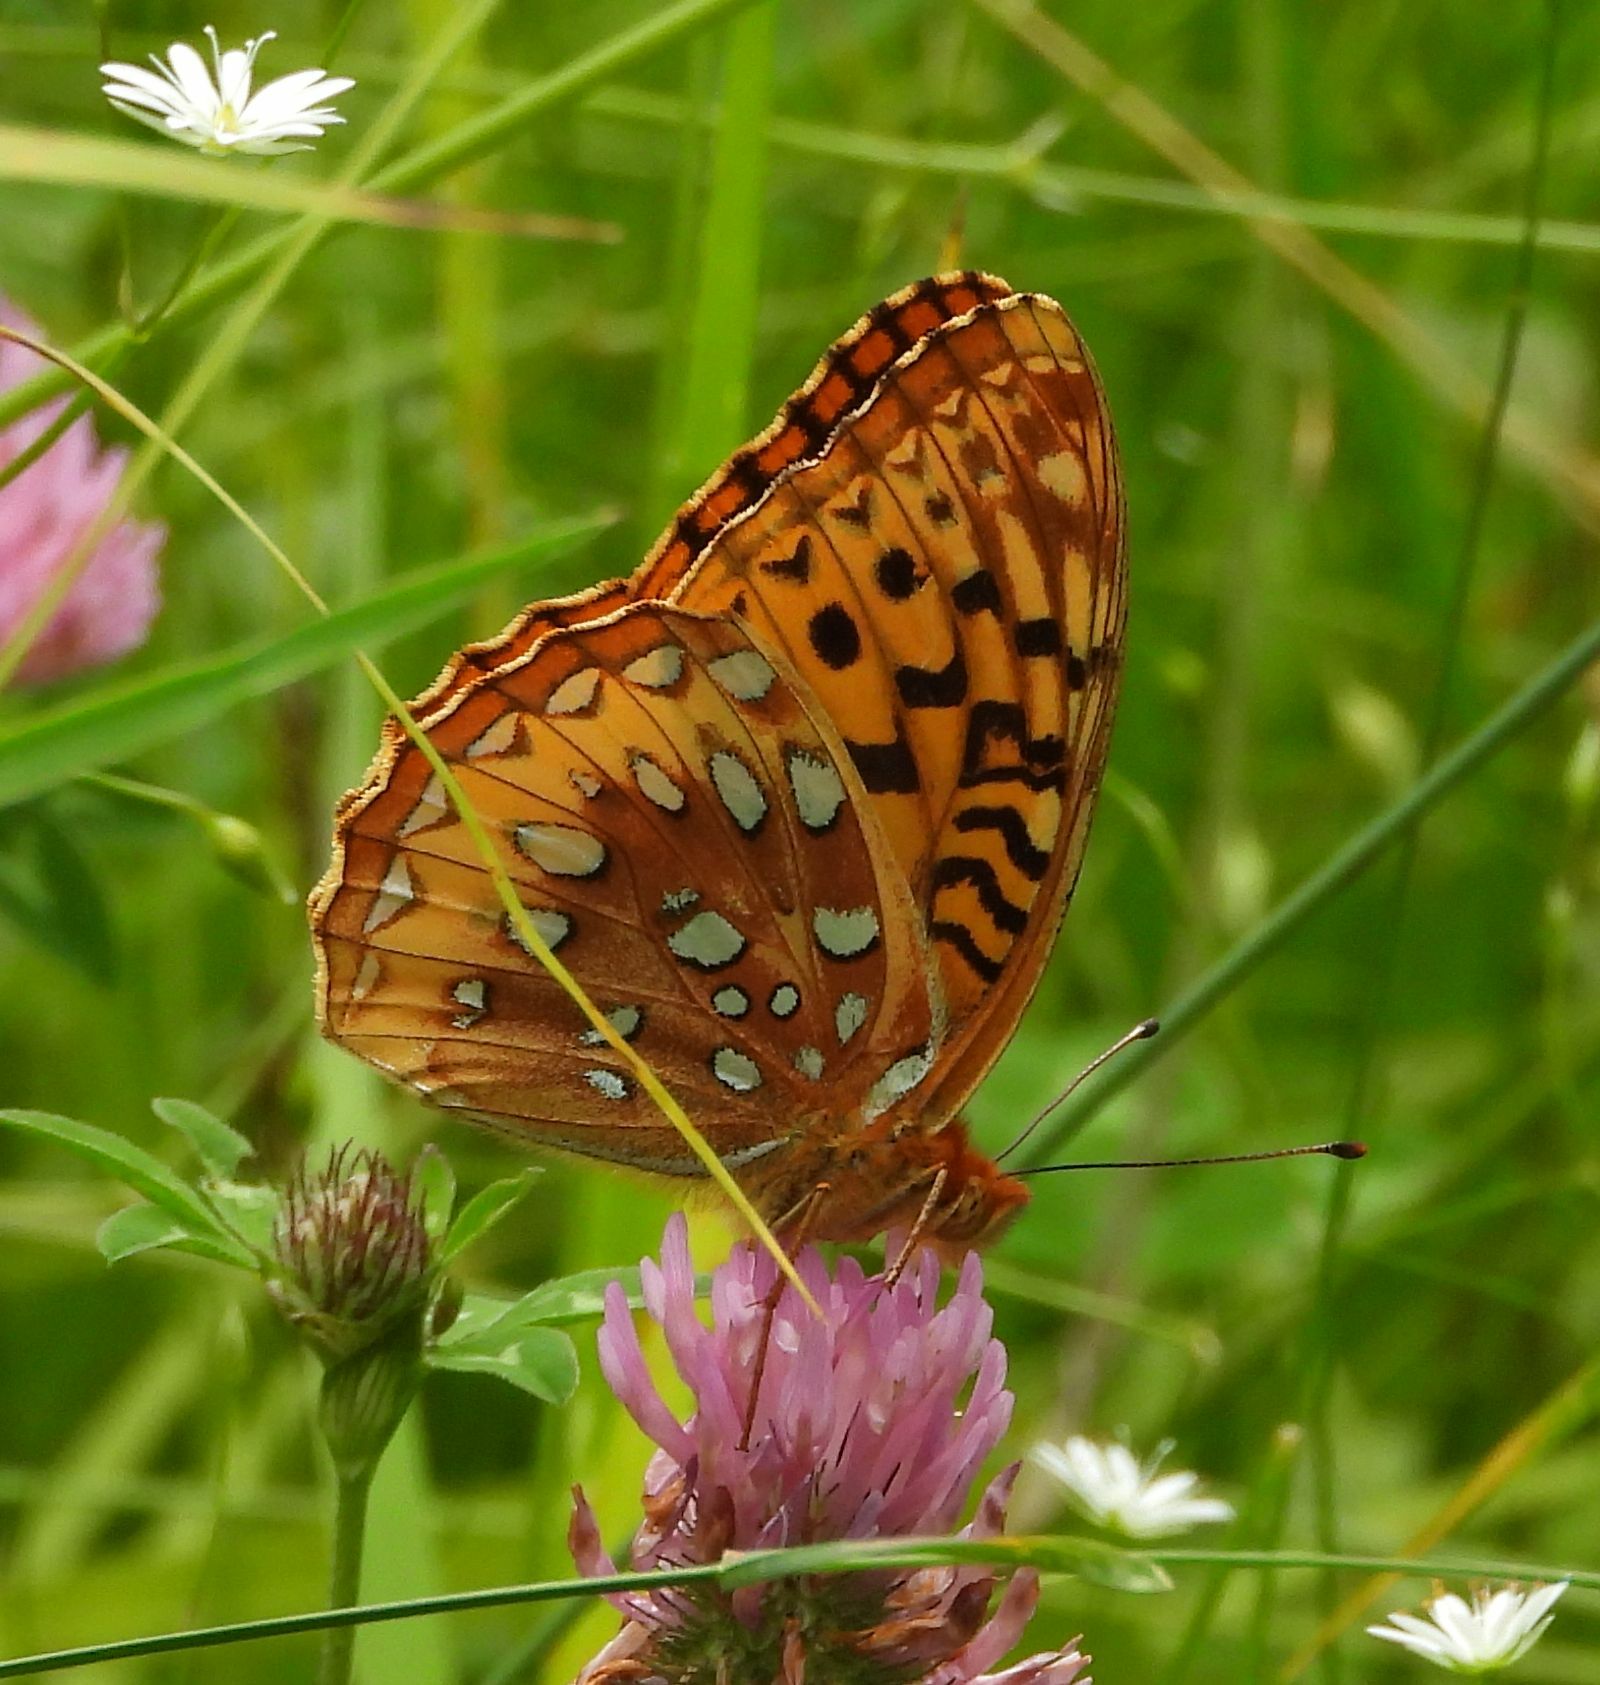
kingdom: Animalia
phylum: Arthropoda
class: Insecta
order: Lepidoptera
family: Nymphalidae
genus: Speyeria
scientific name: Speyeria cybele
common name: Great spangled fritillary
